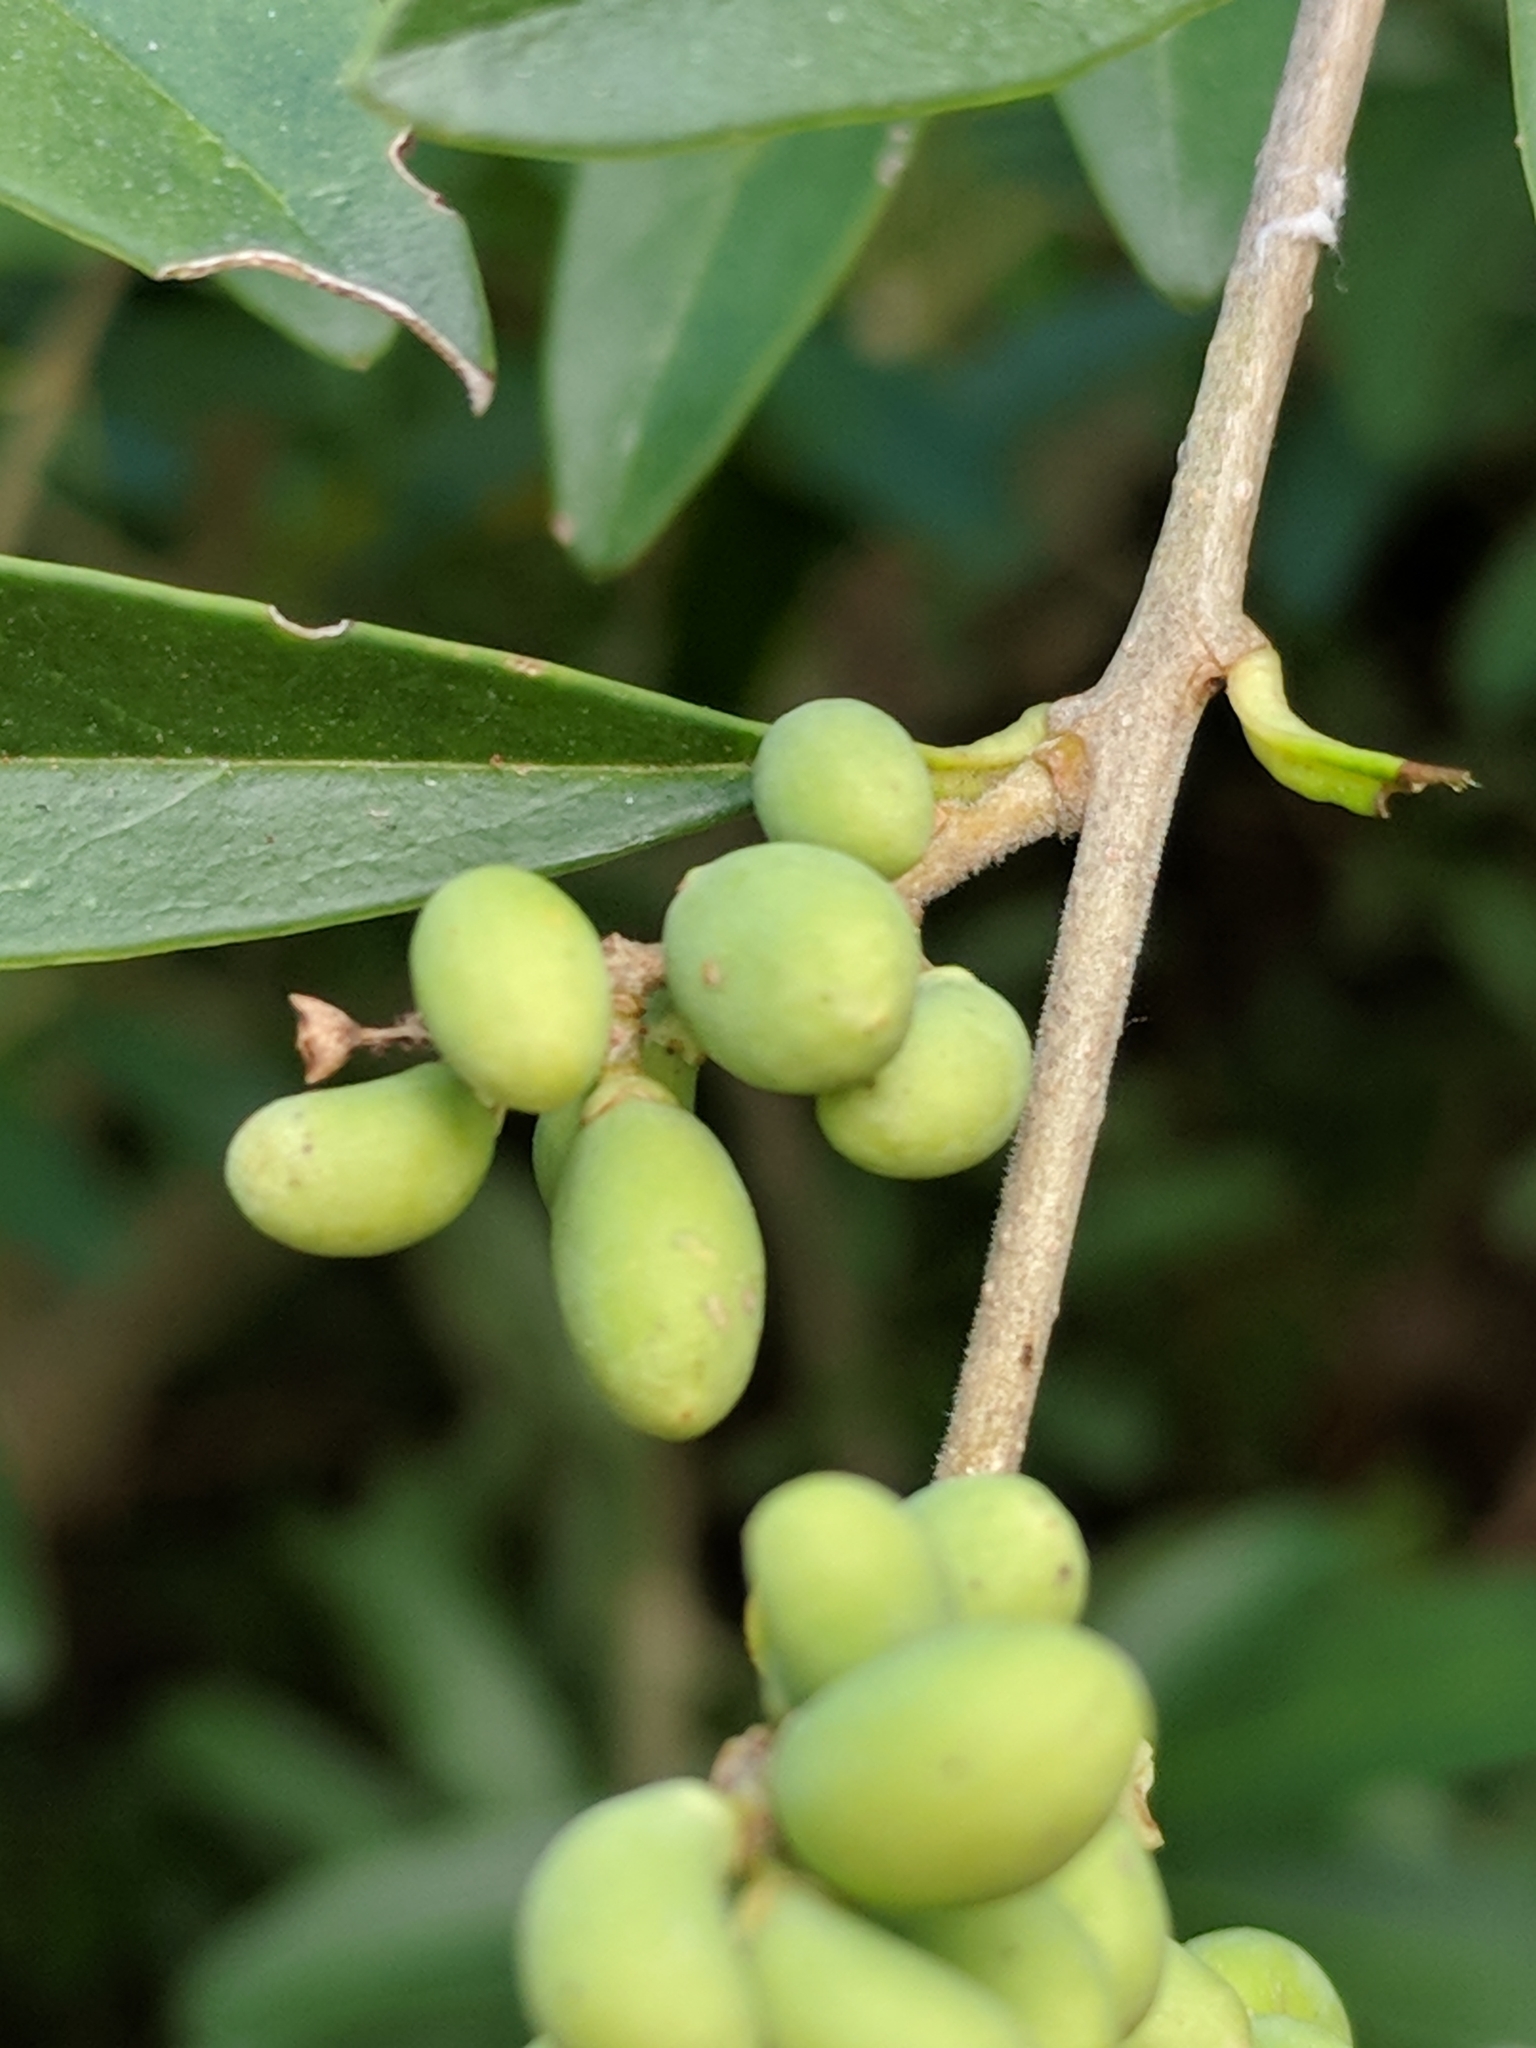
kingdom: Plantae
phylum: Tracheophyta
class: Magnoliopsida
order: Lamiales
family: Oleaceae
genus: Ligustrum
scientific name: Ligustrum quihoui
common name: Waxyleaf privet
